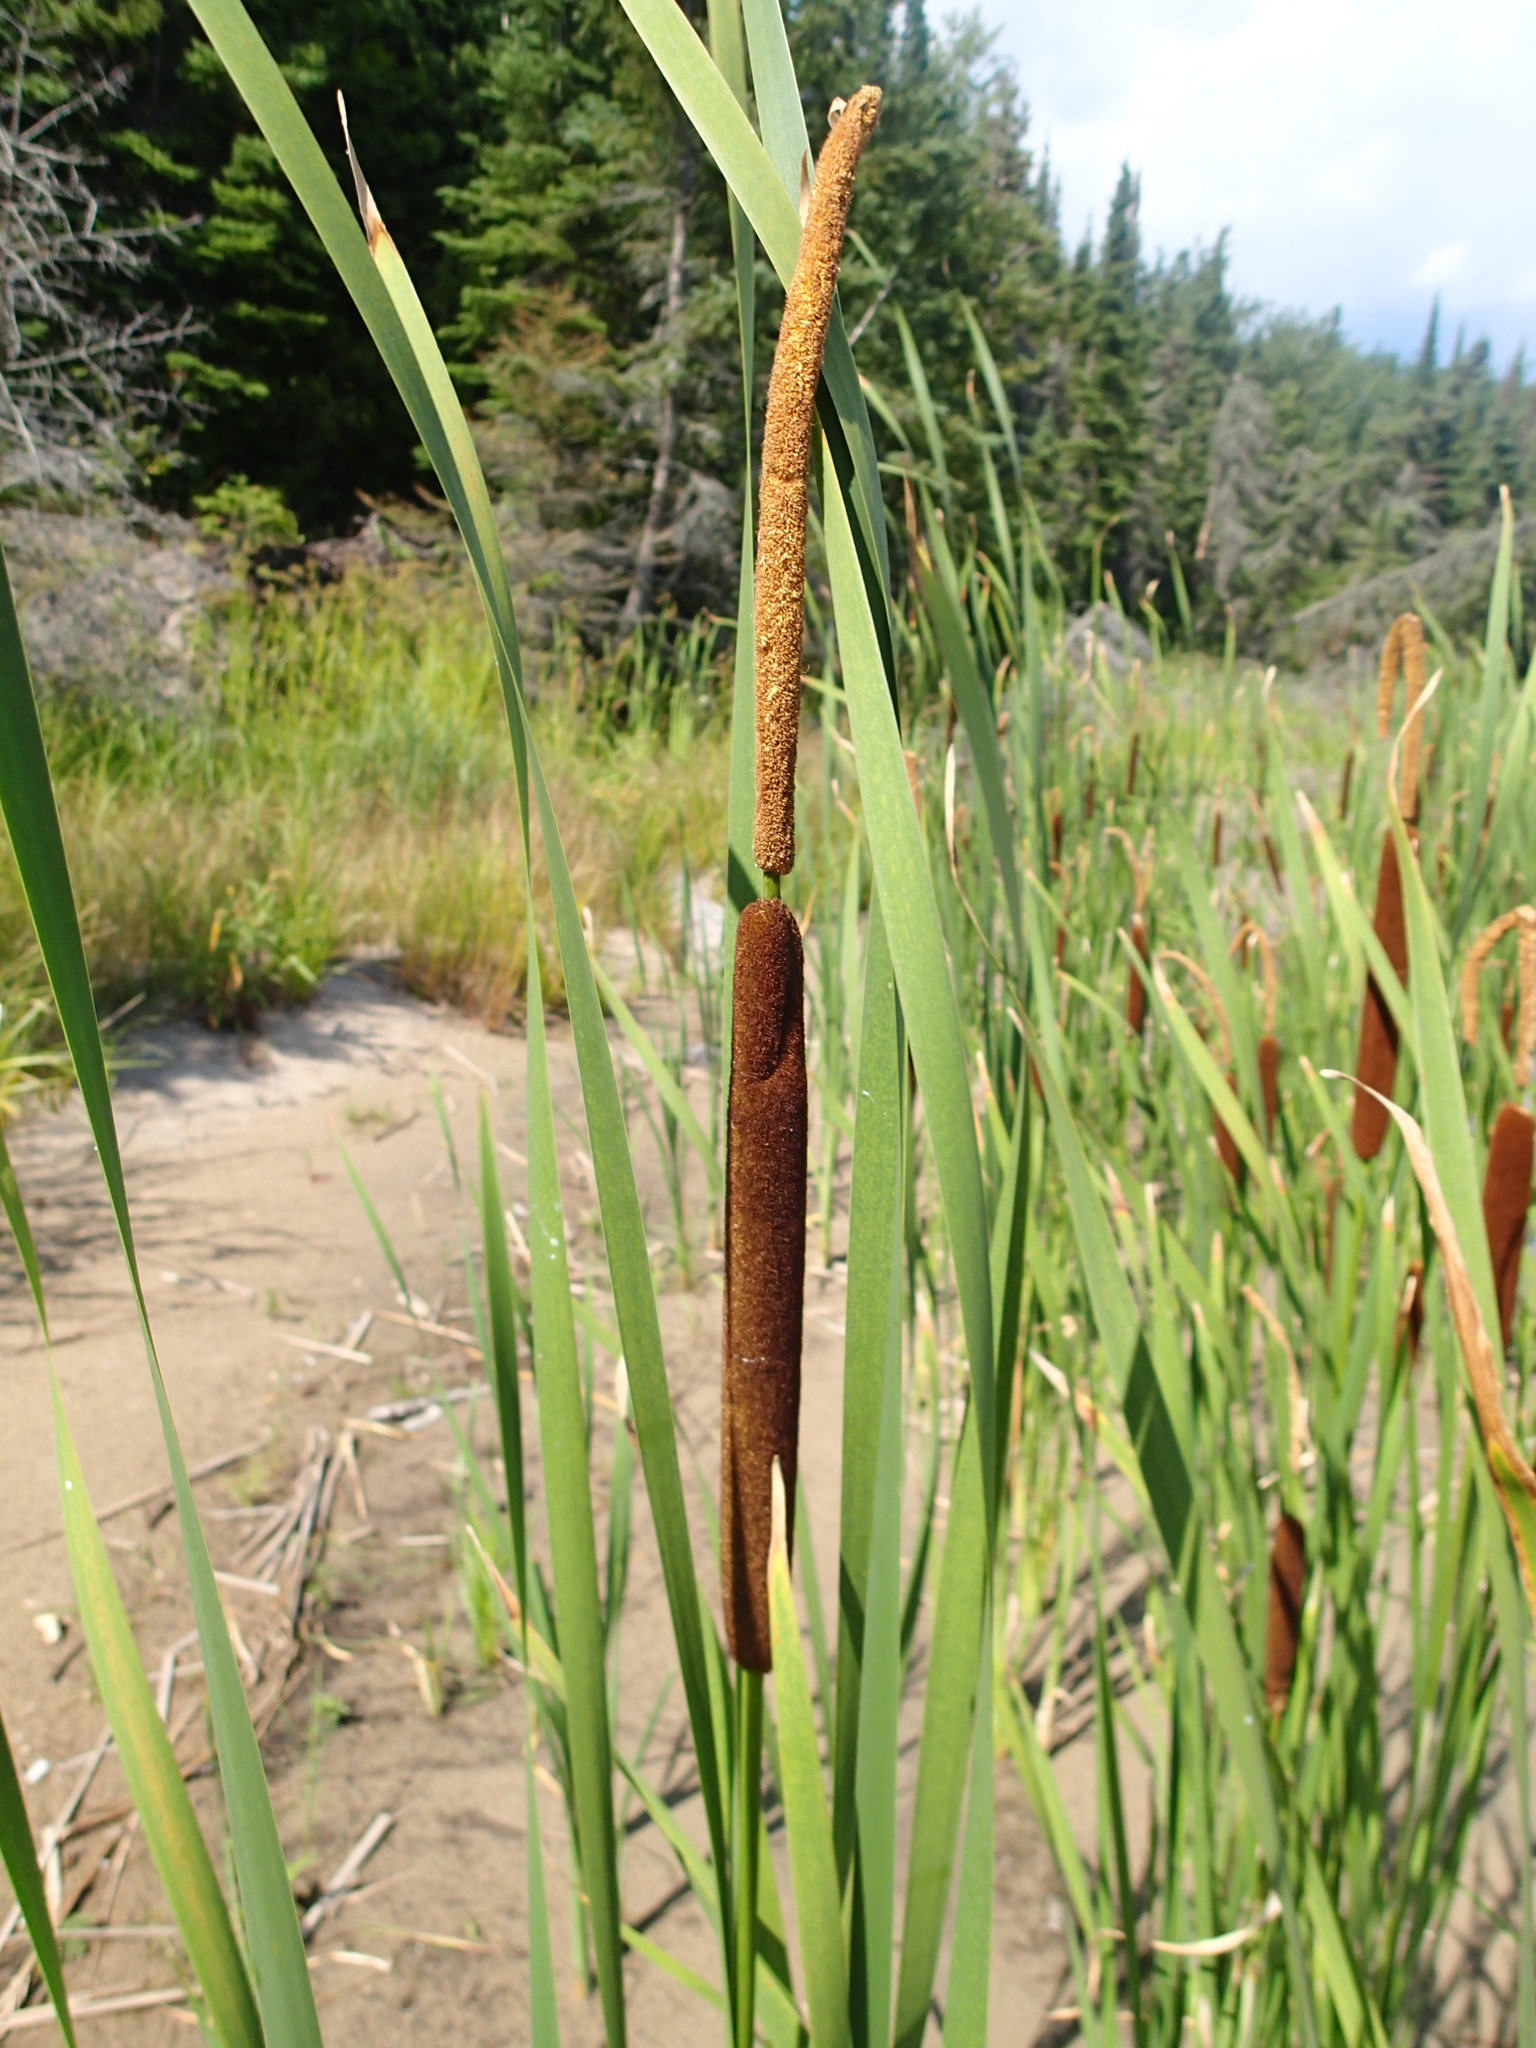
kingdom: Plantae
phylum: Tracheophyta
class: Liliopsida
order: Poales
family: Typhaceae
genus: Typha
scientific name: Typha angustifolia
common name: Lesser bulrush
